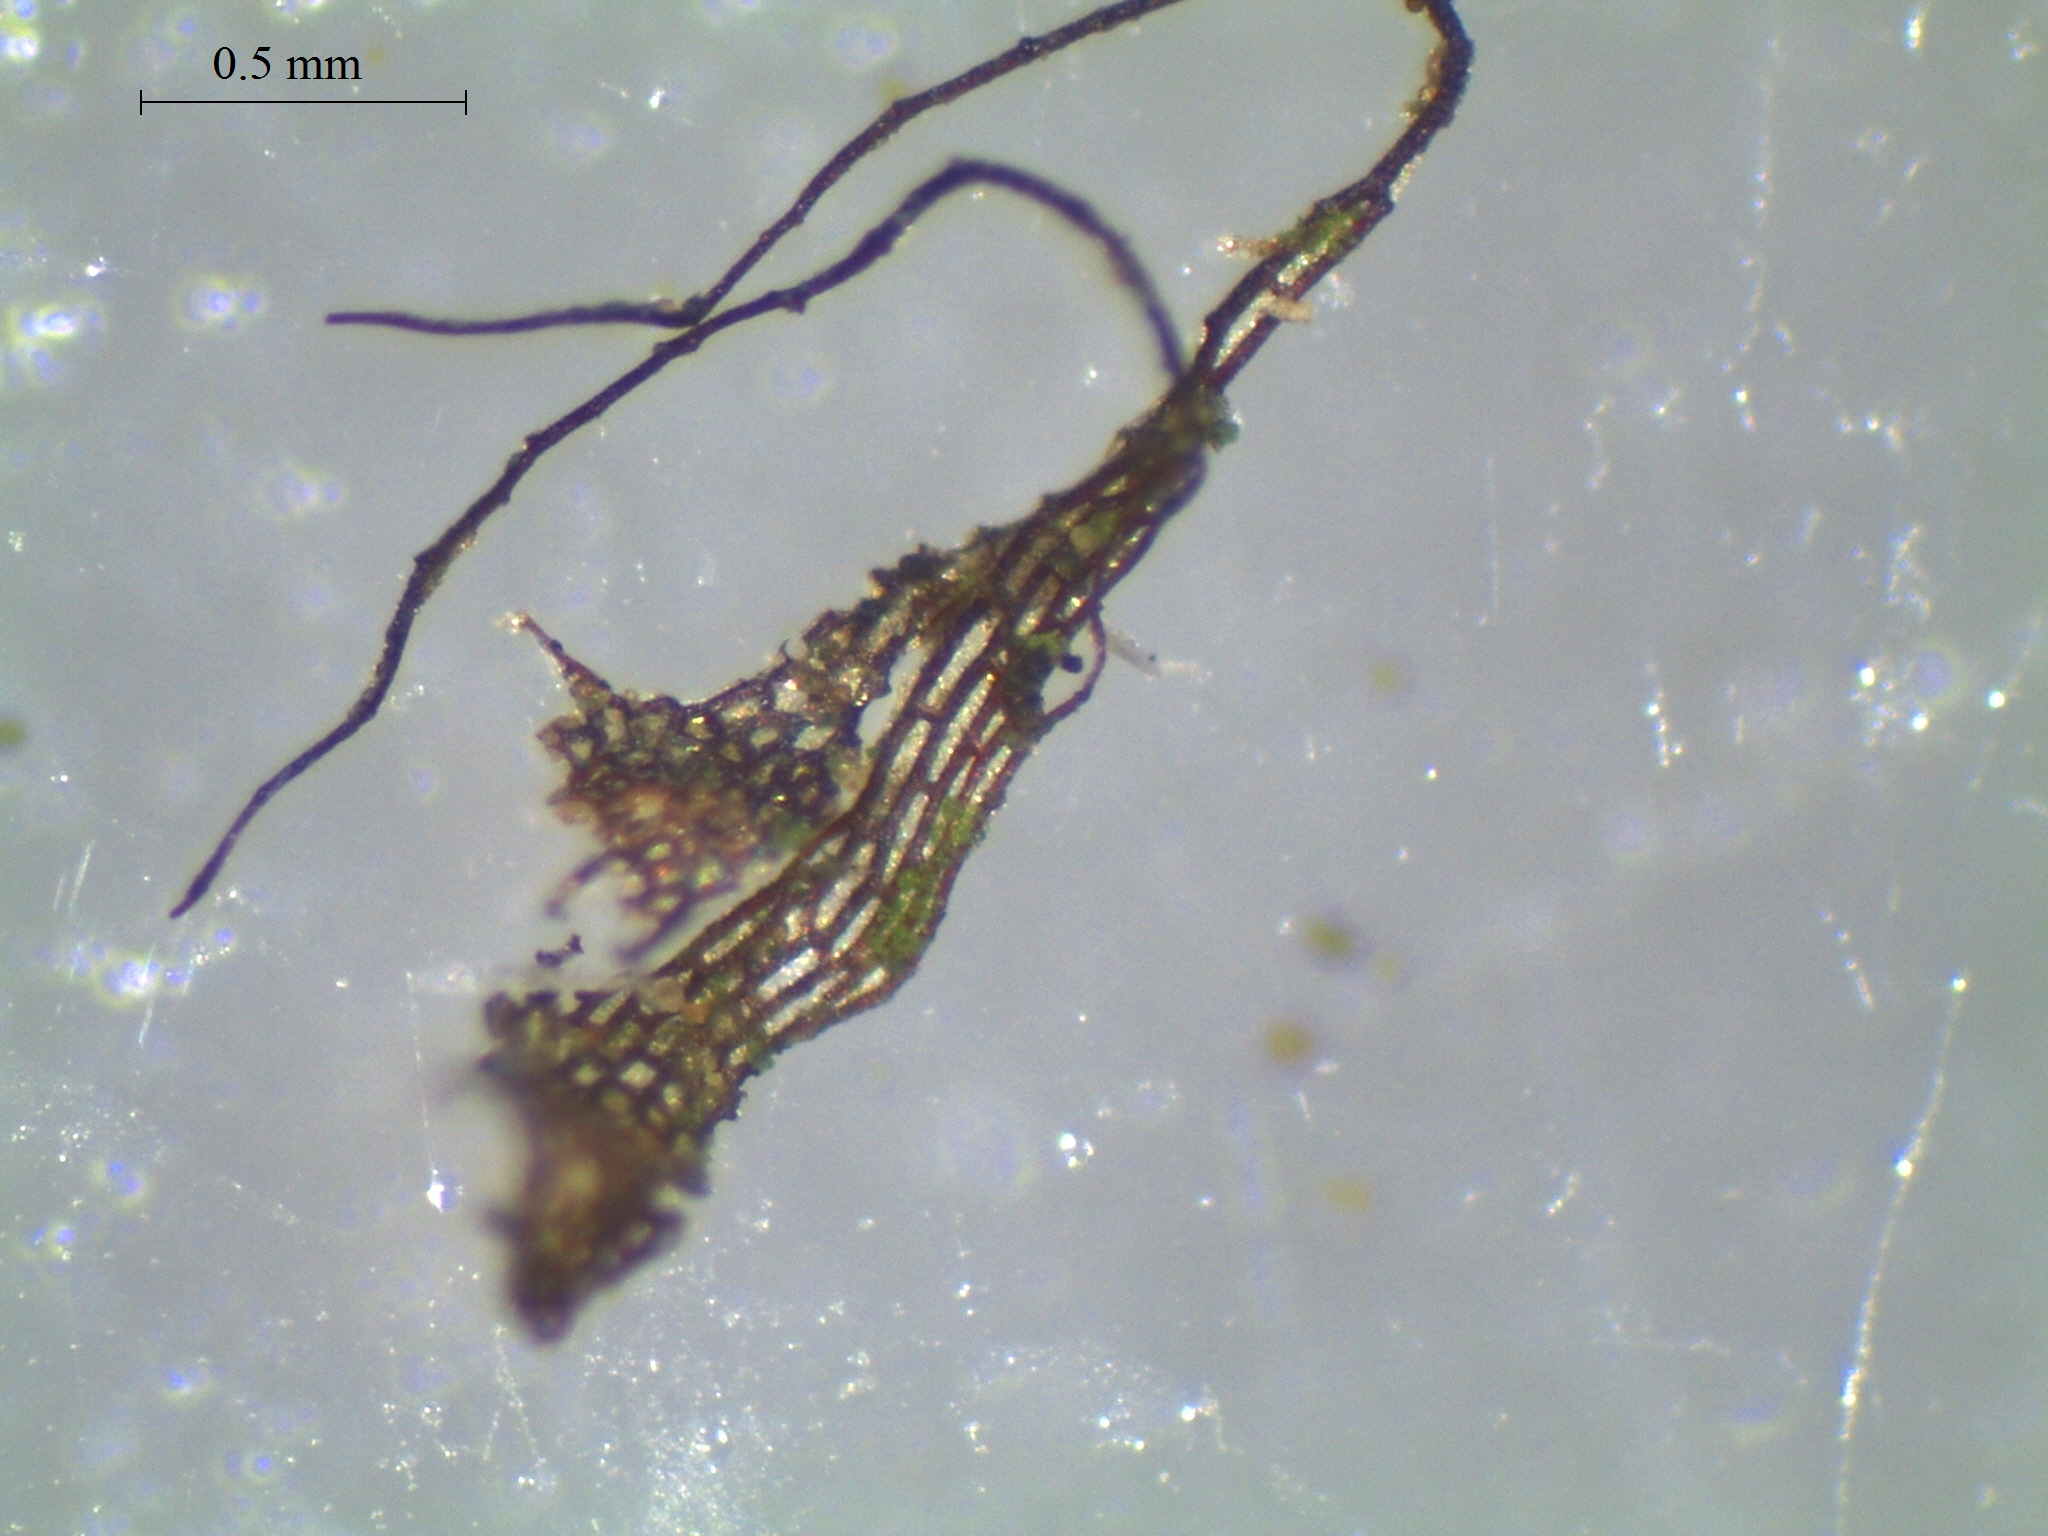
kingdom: Plantae
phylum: Tracheophyta
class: Polypodiopsida
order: Polypodiales
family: Aspleniaceae
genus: Asplenium
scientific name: Asplenium oblongifolium
